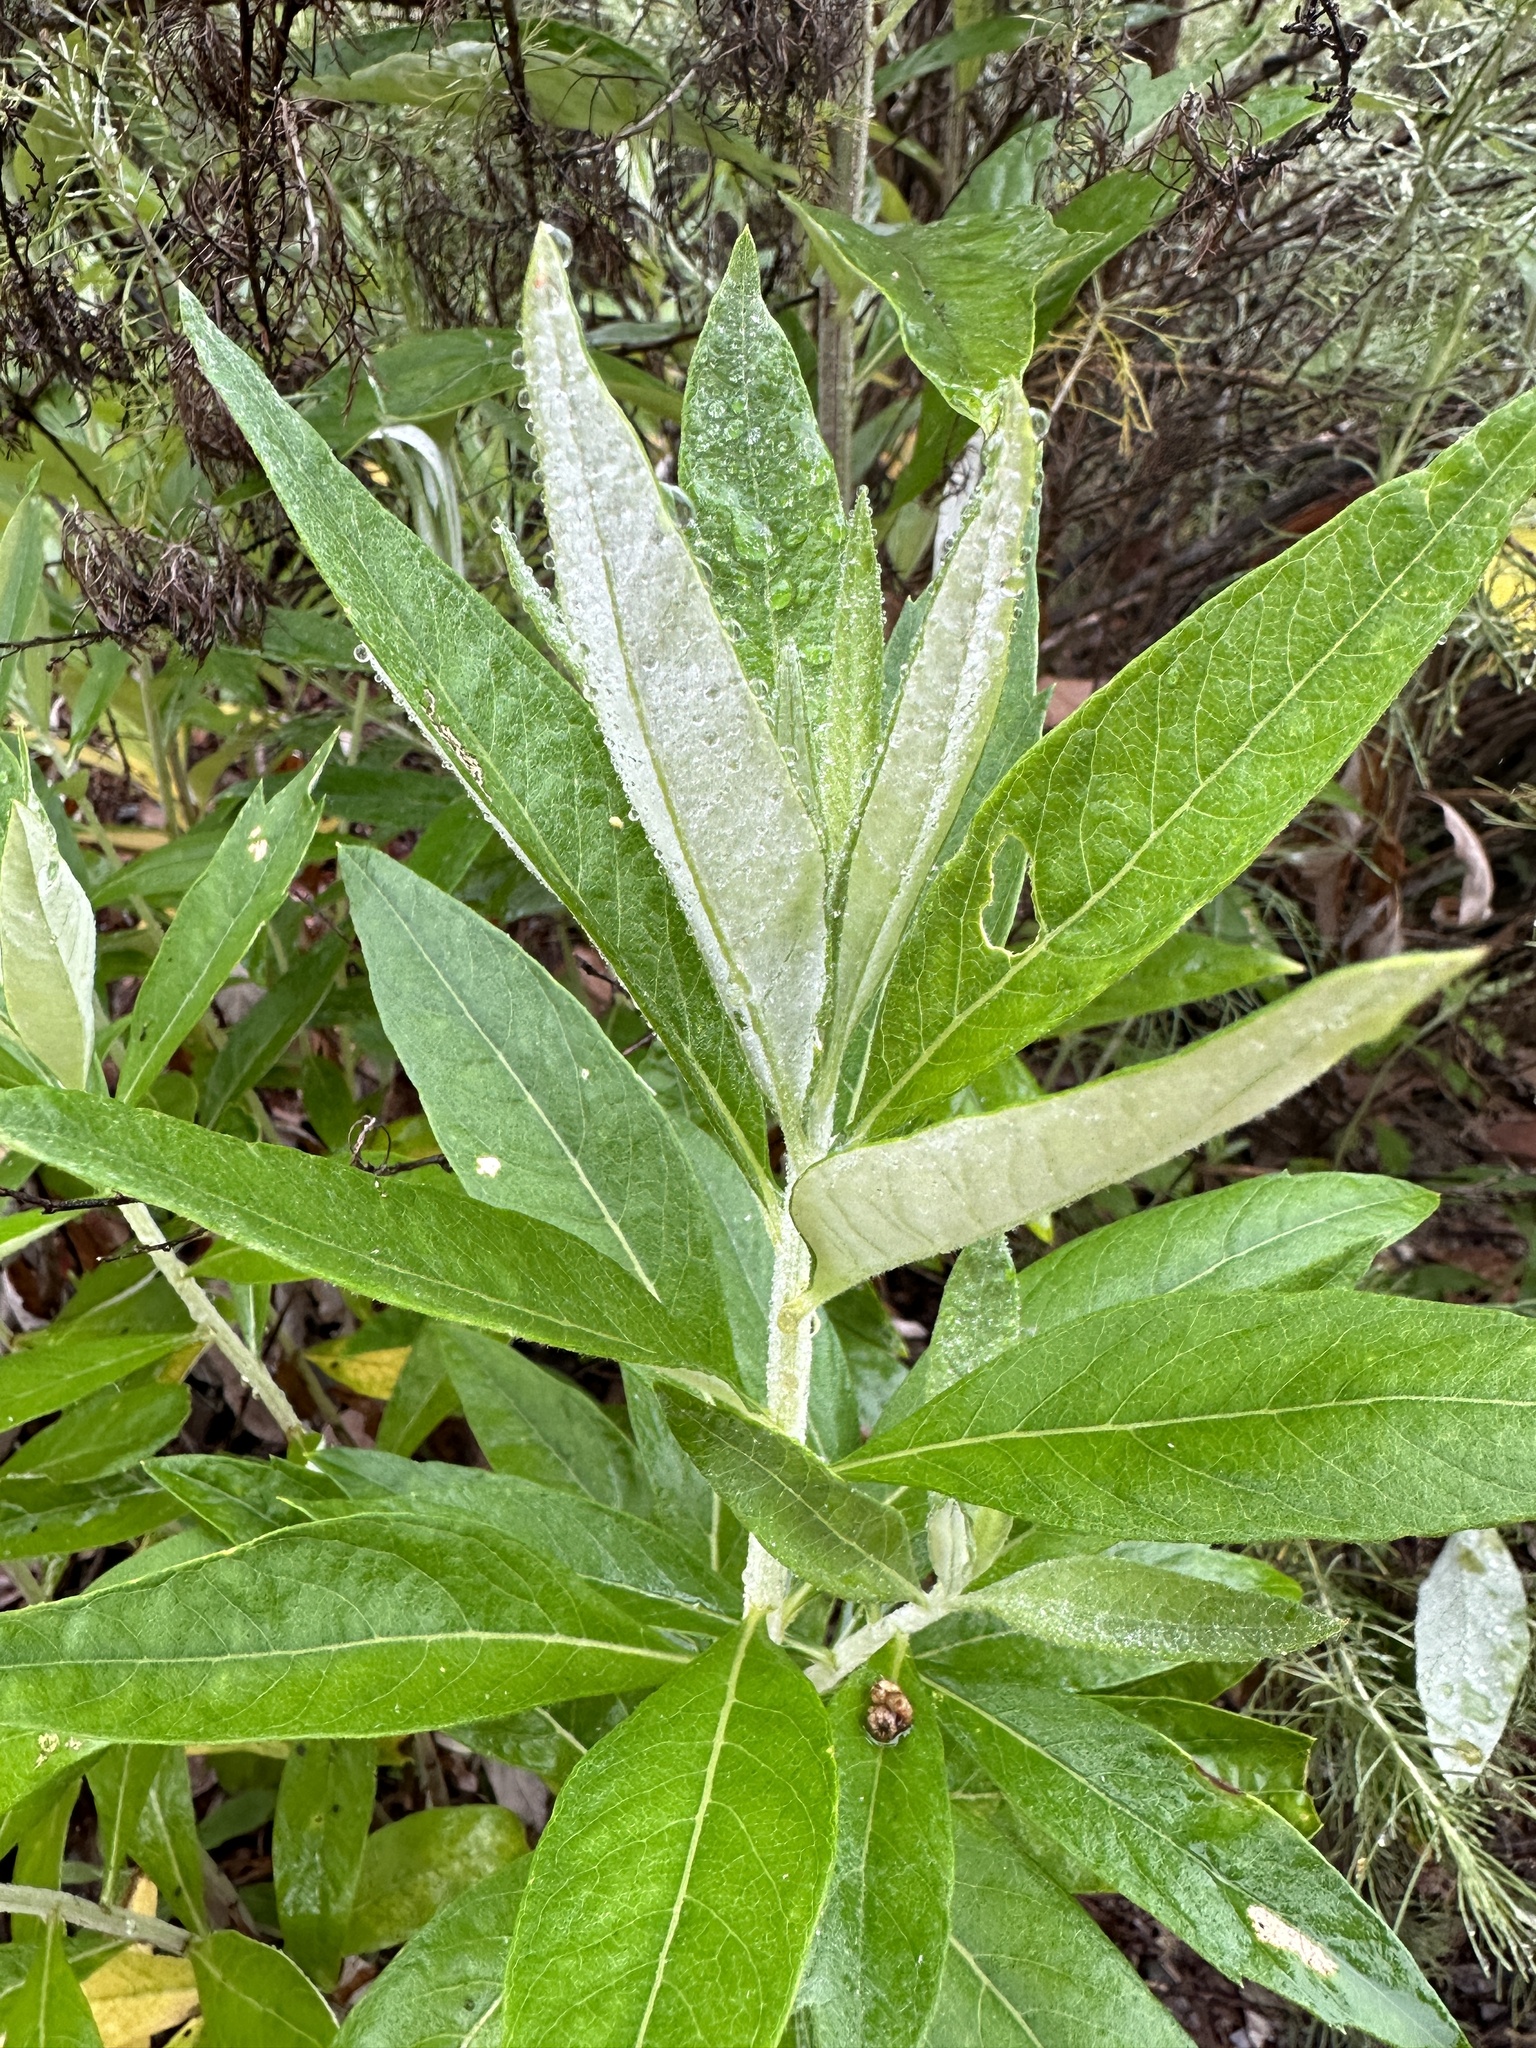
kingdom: Plantae
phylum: Tracheophyta
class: Magnoliopsida
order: Asterales
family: Asteraceae
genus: Artemisia
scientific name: Artemisia douglasiana
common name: Northwest mugwort
